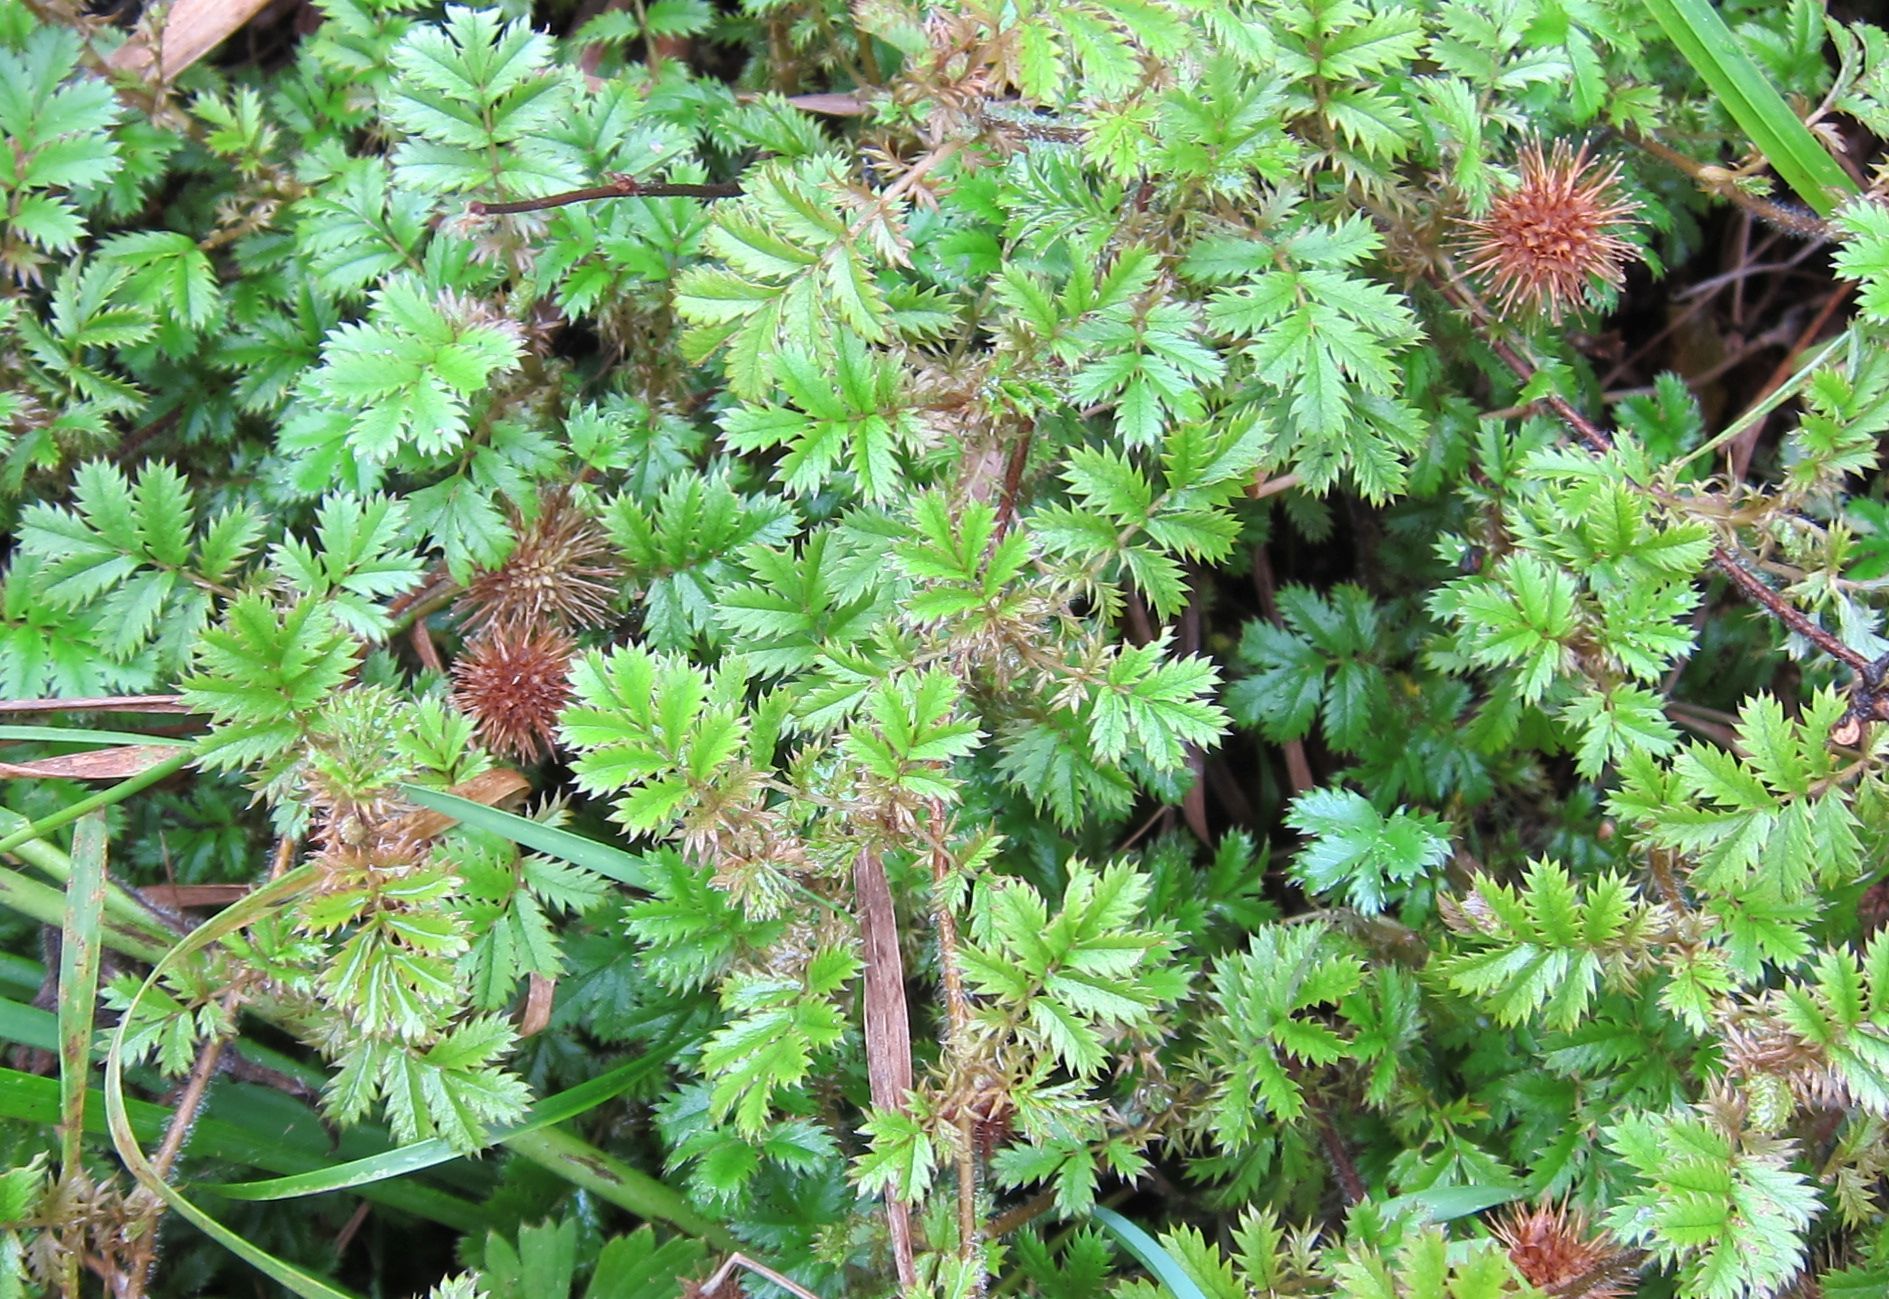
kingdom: Plantae
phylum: Tracheophyta
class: Magnoliopsida
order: Rosales
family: Rosaceae
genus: Acaena
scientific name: Acaena anserinifolia
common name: Bronze pirri-pirri-bur
